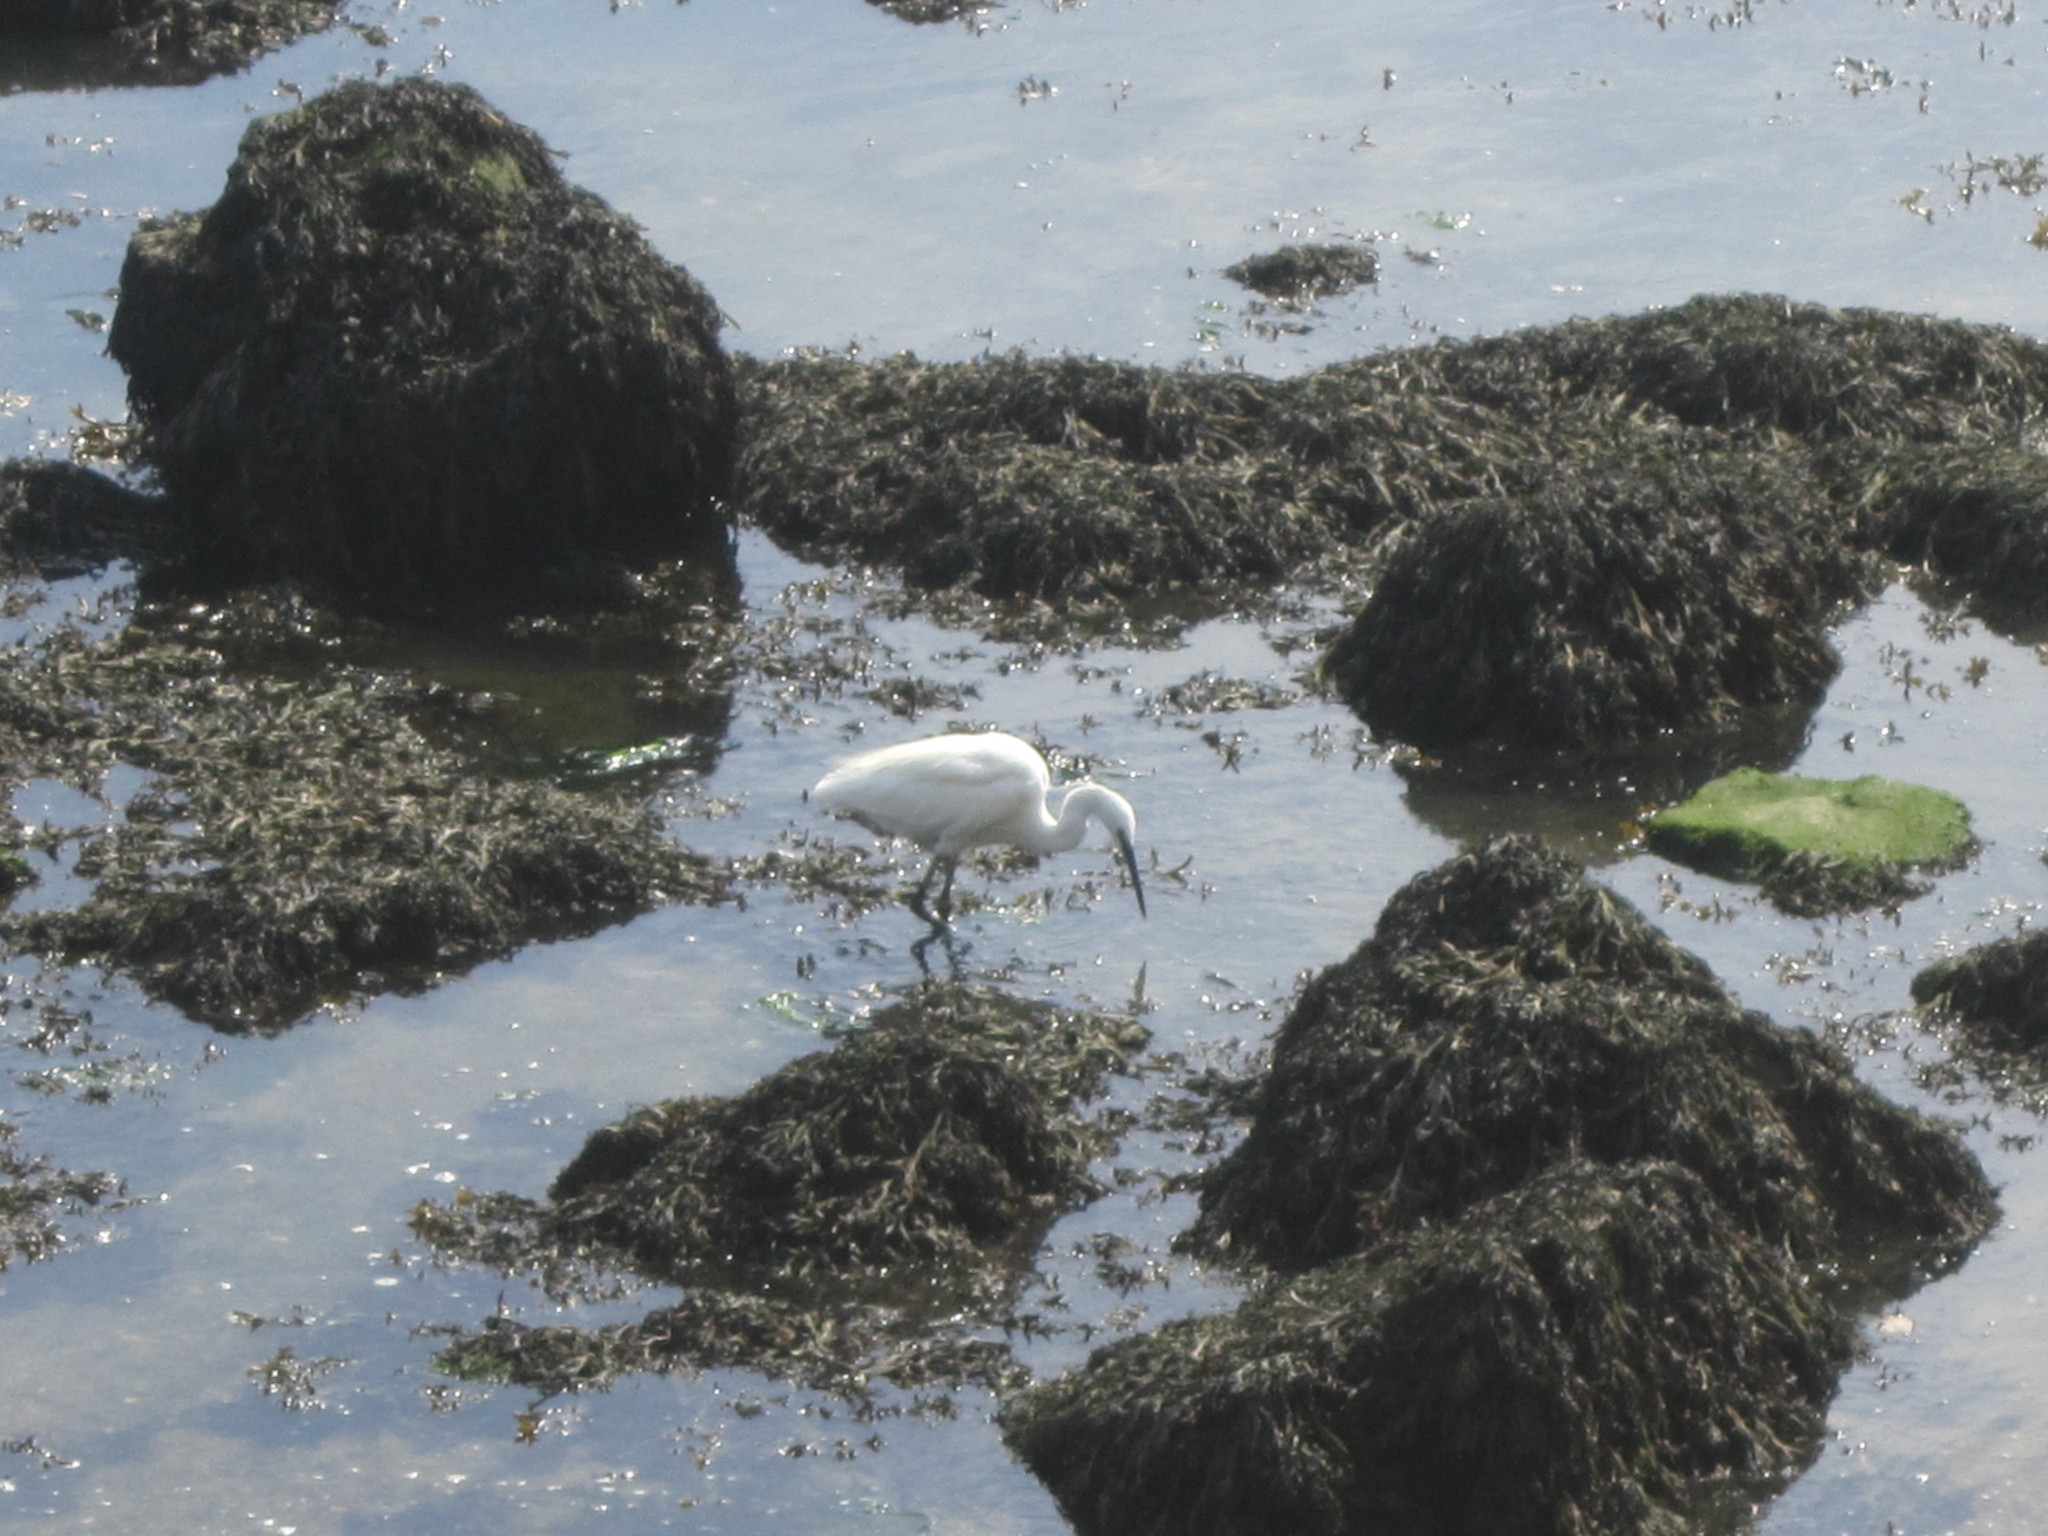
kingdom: Animalia
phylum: Chordata
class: Aves
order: Pelecaniformes
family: Ardeidae
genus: Egretta
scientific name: Egretta garzetta
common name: Little egret
